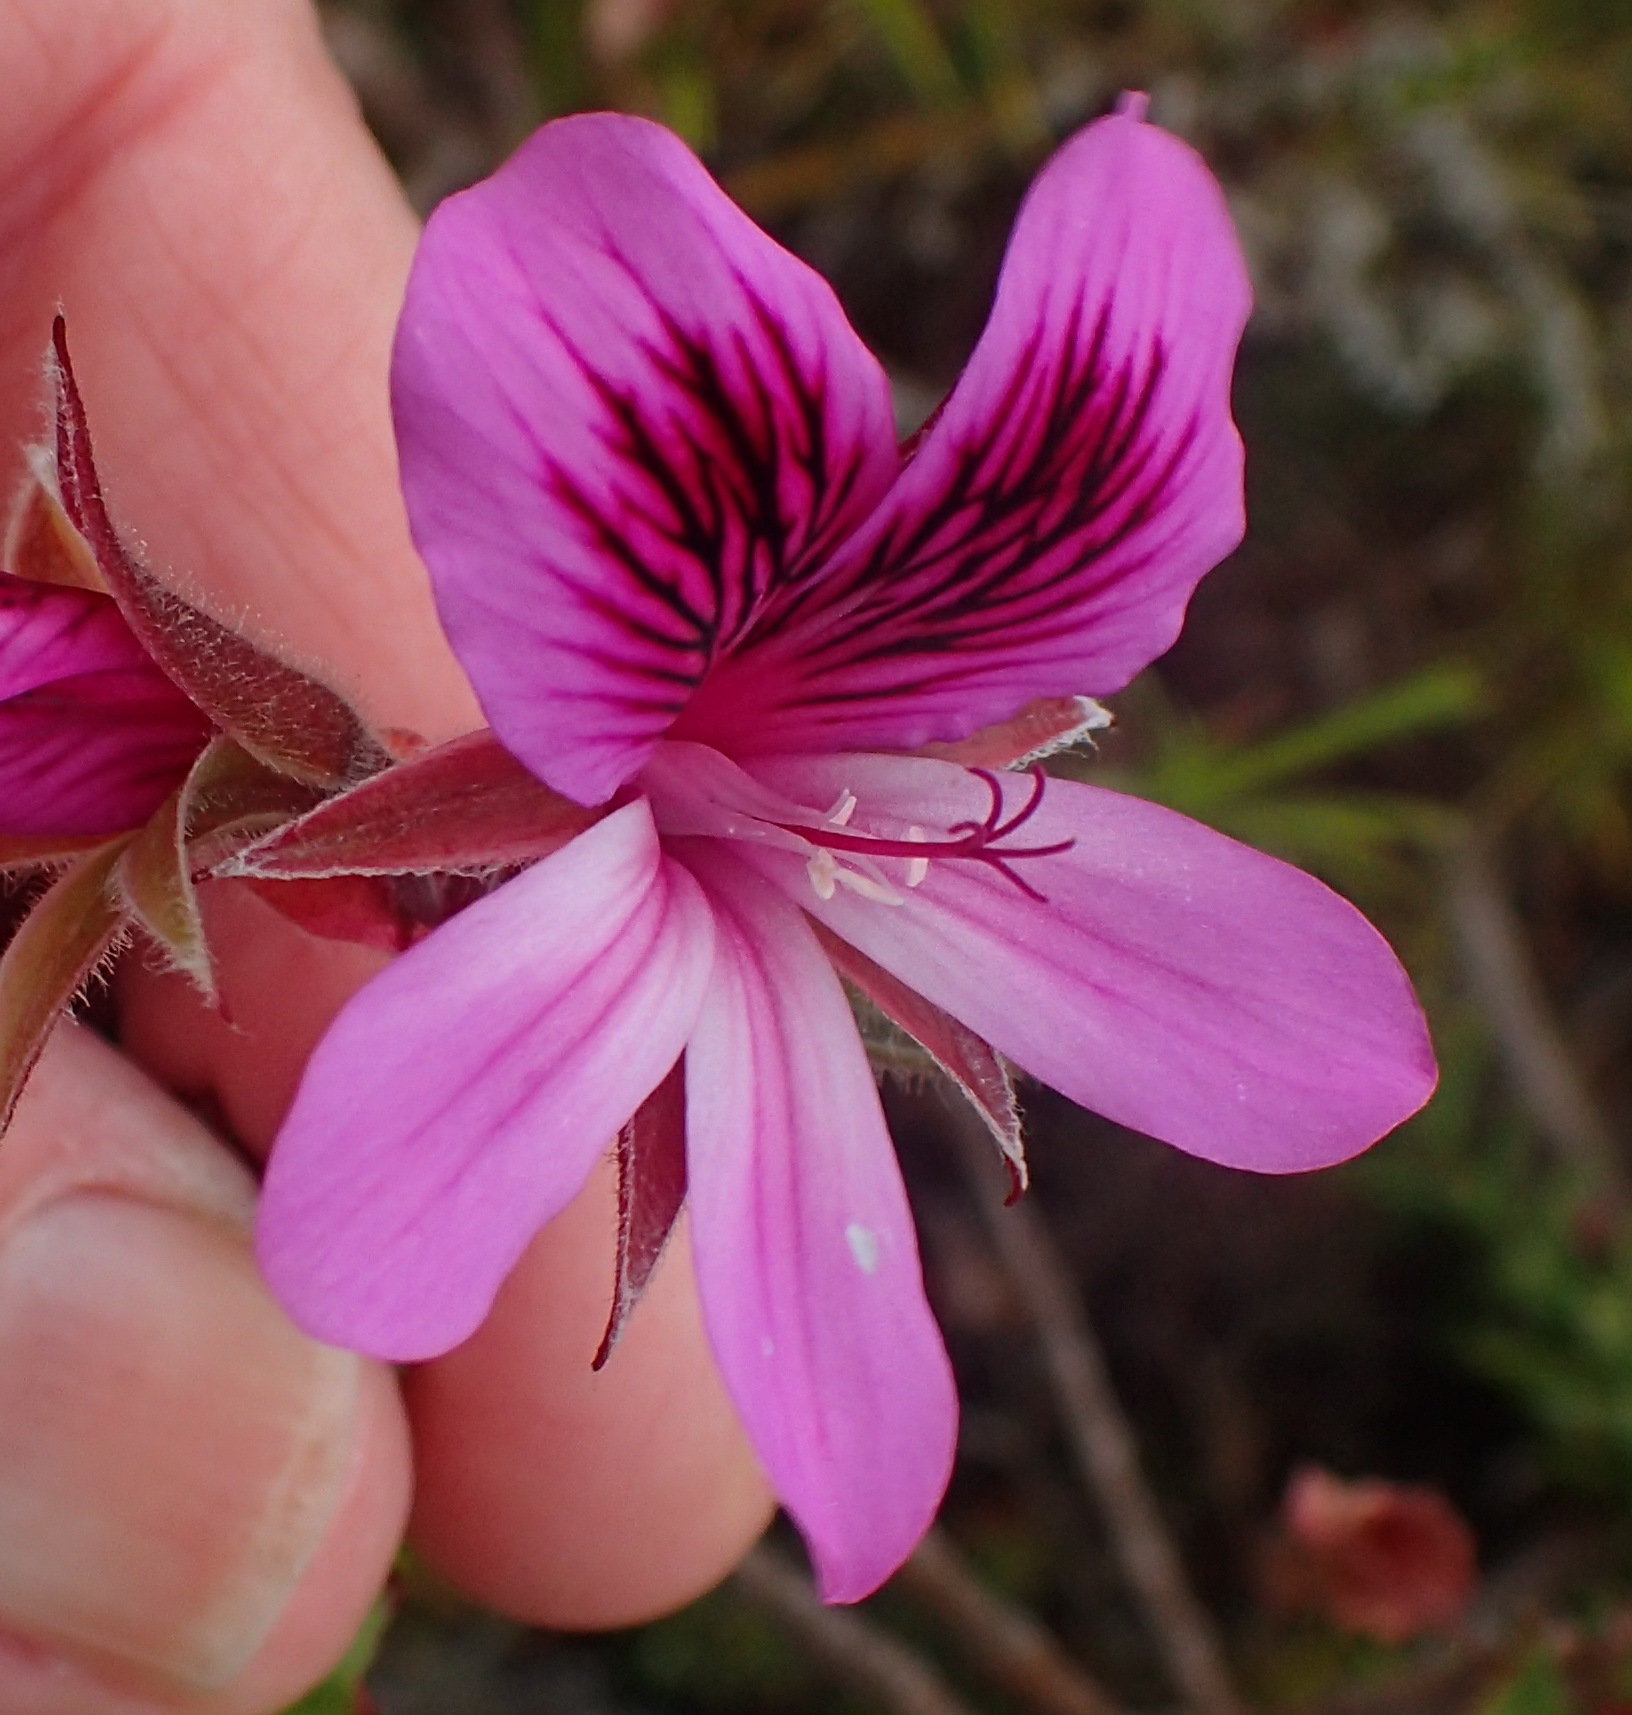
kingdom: Plantae
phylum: Tracheophyta
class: Magnoliopsida
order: Geraniales
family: Geraniaceae
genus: Pelargonium
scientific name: Pelargonium betulinum
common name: Birch-leaf pelargonium
